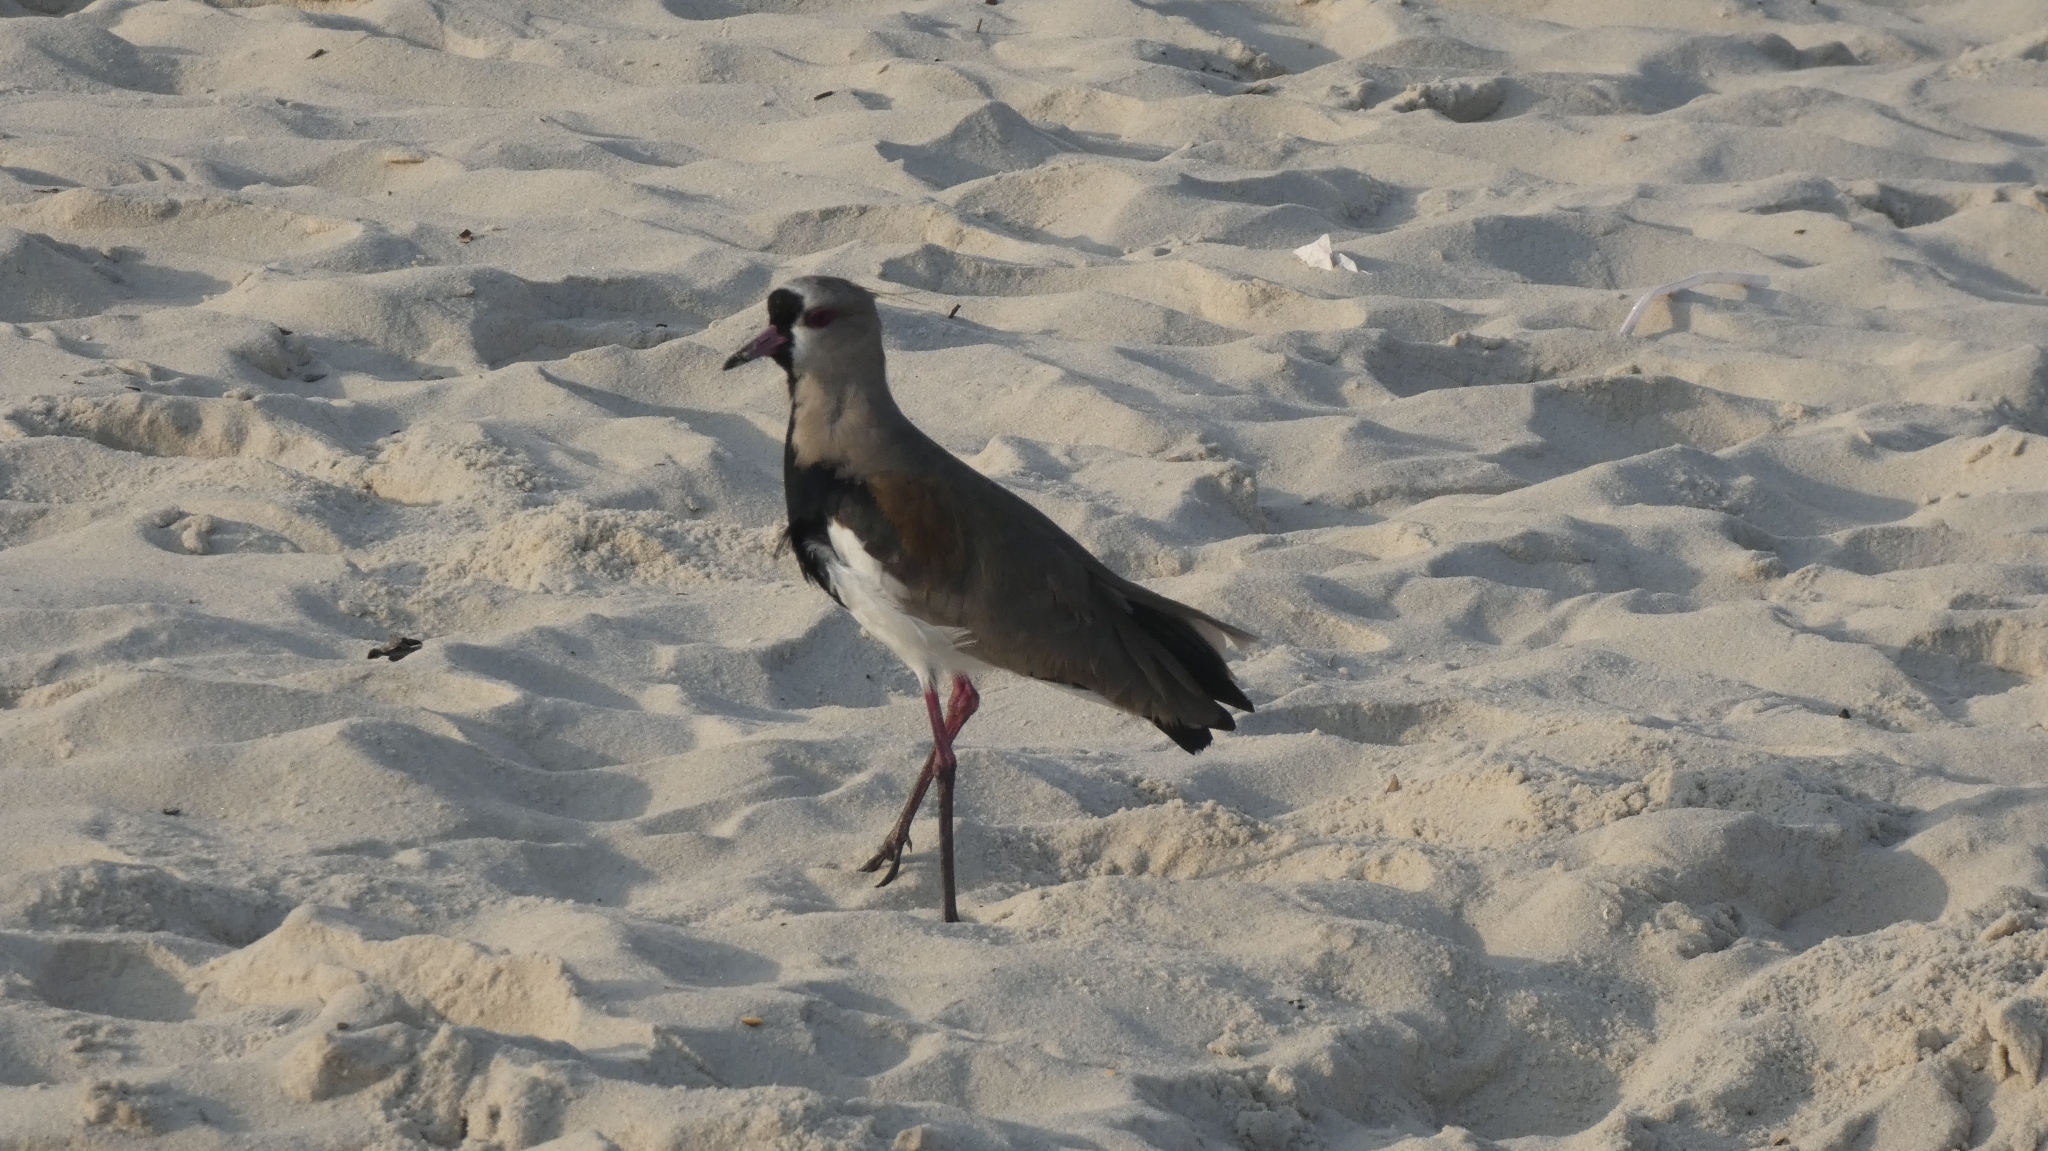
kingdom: Animalia
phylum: Chordata
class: Aves
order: Charadriiformes
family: Charadriidae
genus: Vanellus
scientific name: Vanellus chilensis
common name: Southern lapwing
